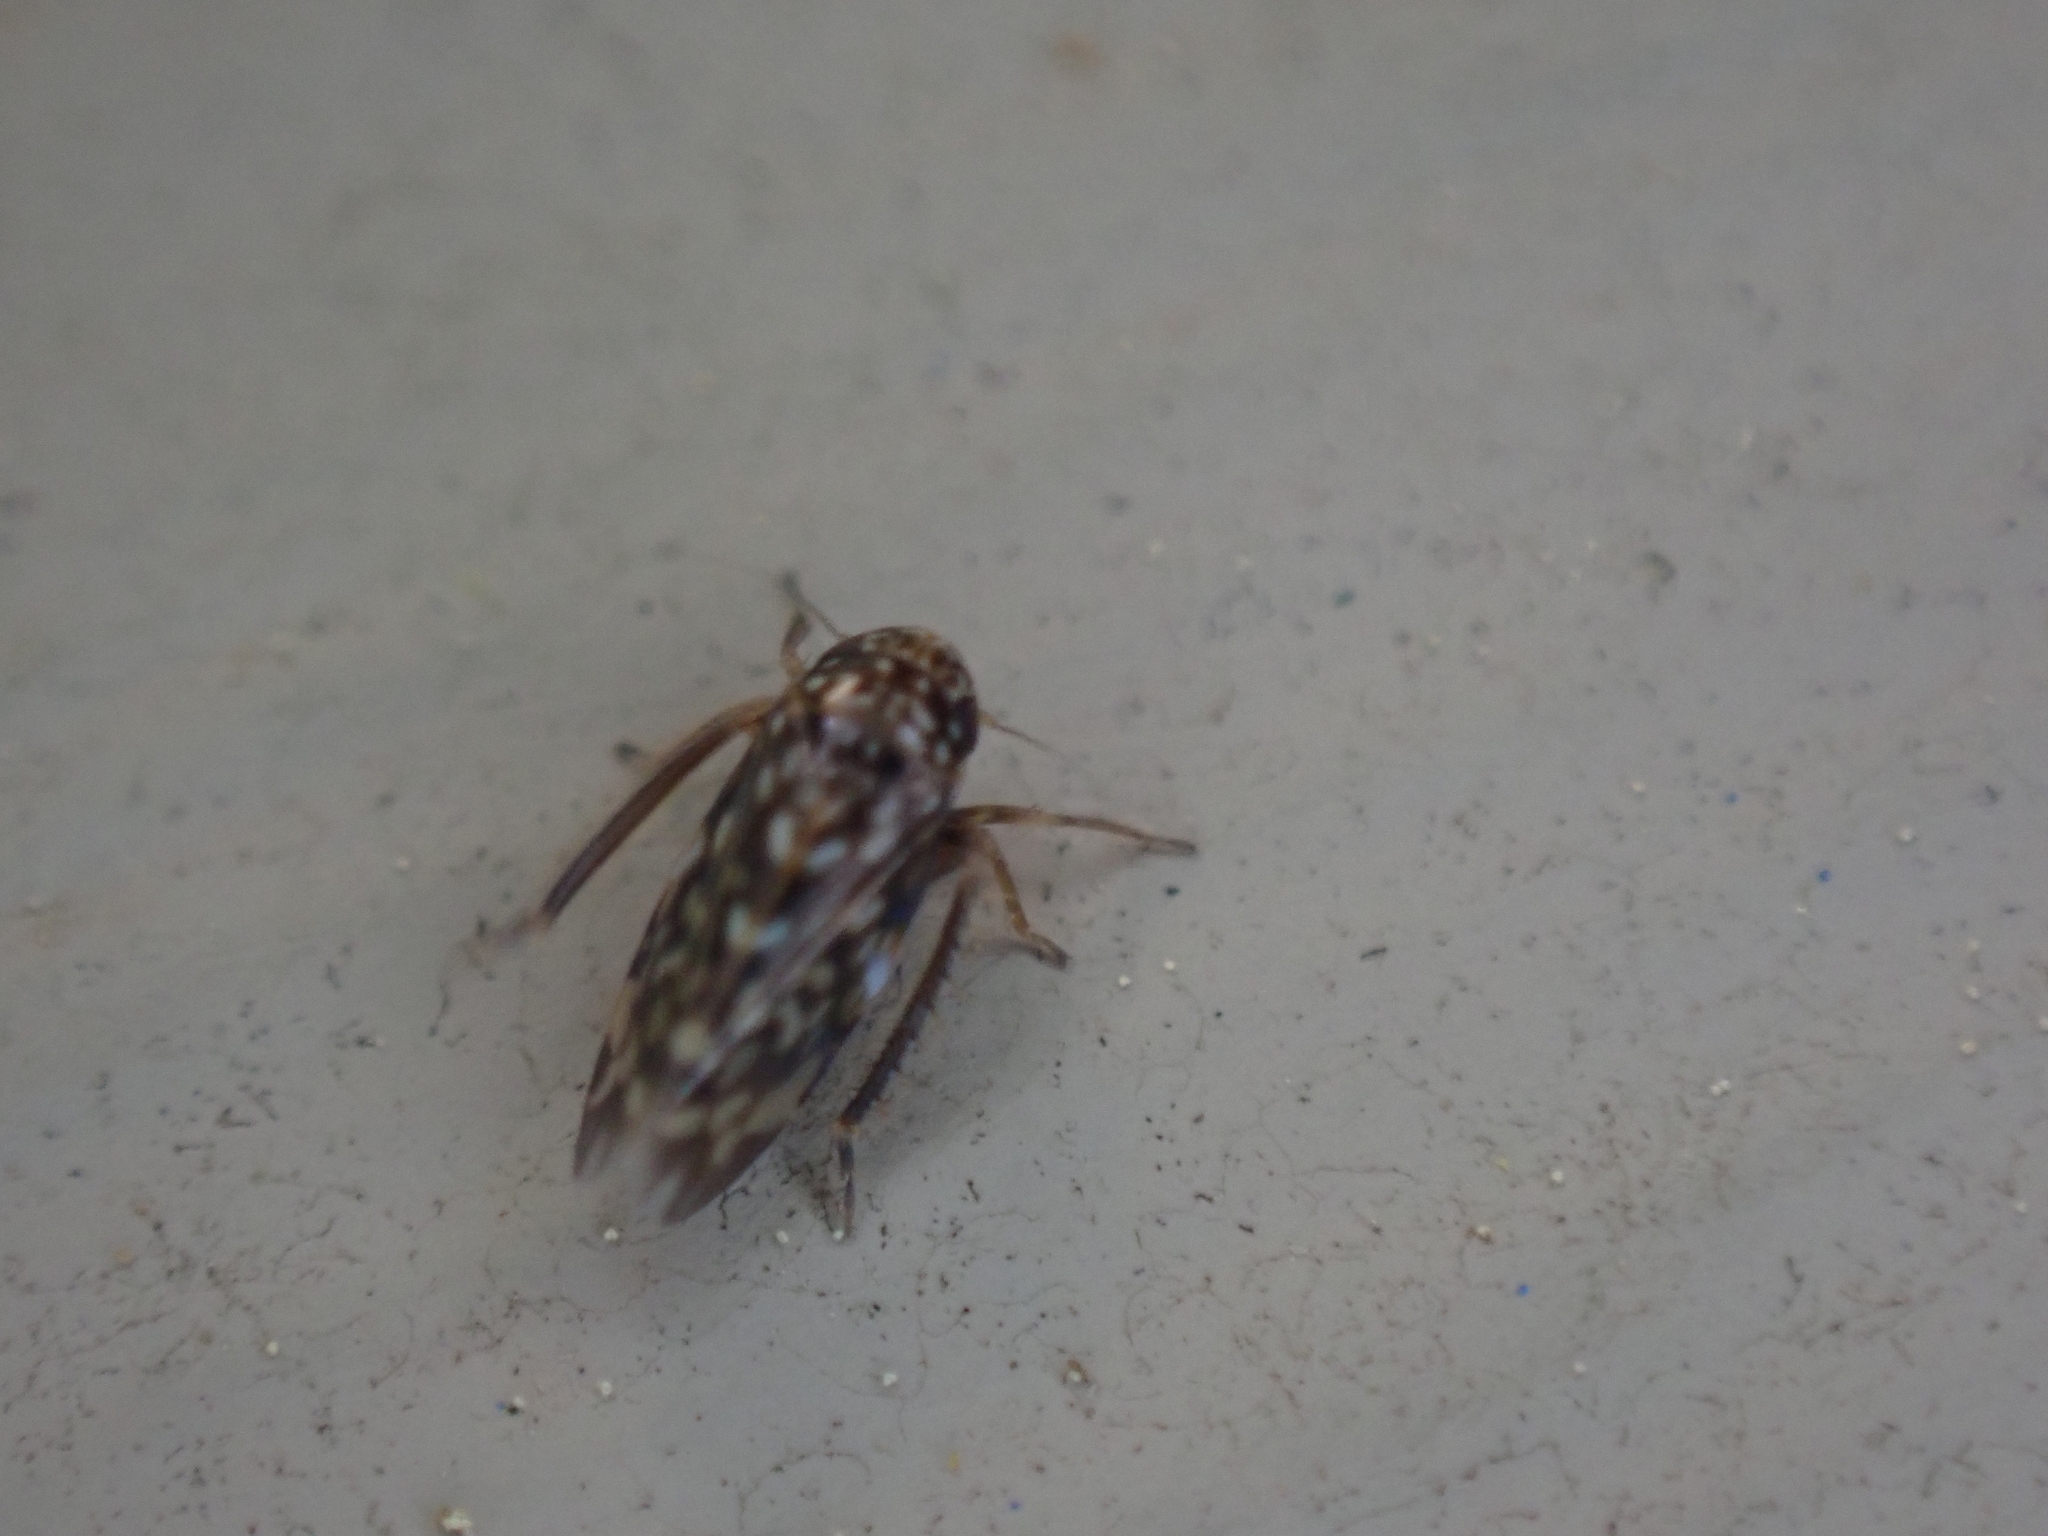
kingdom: Animalia
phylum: Arthropoda
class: Insecta
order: Hemiptera
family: Cicadellidae
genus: Xestocephalus
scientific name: Xestocephalus superbus
